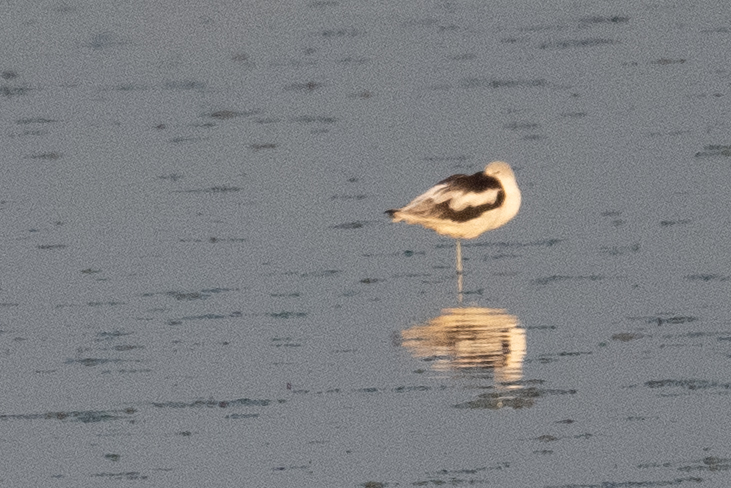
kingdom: Animalia
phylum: Chordata
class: Aves
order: Charadriiformes
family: Recurvirostridae
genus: Recurvirostra
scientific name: Recurvirostra americana
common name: American avocet
